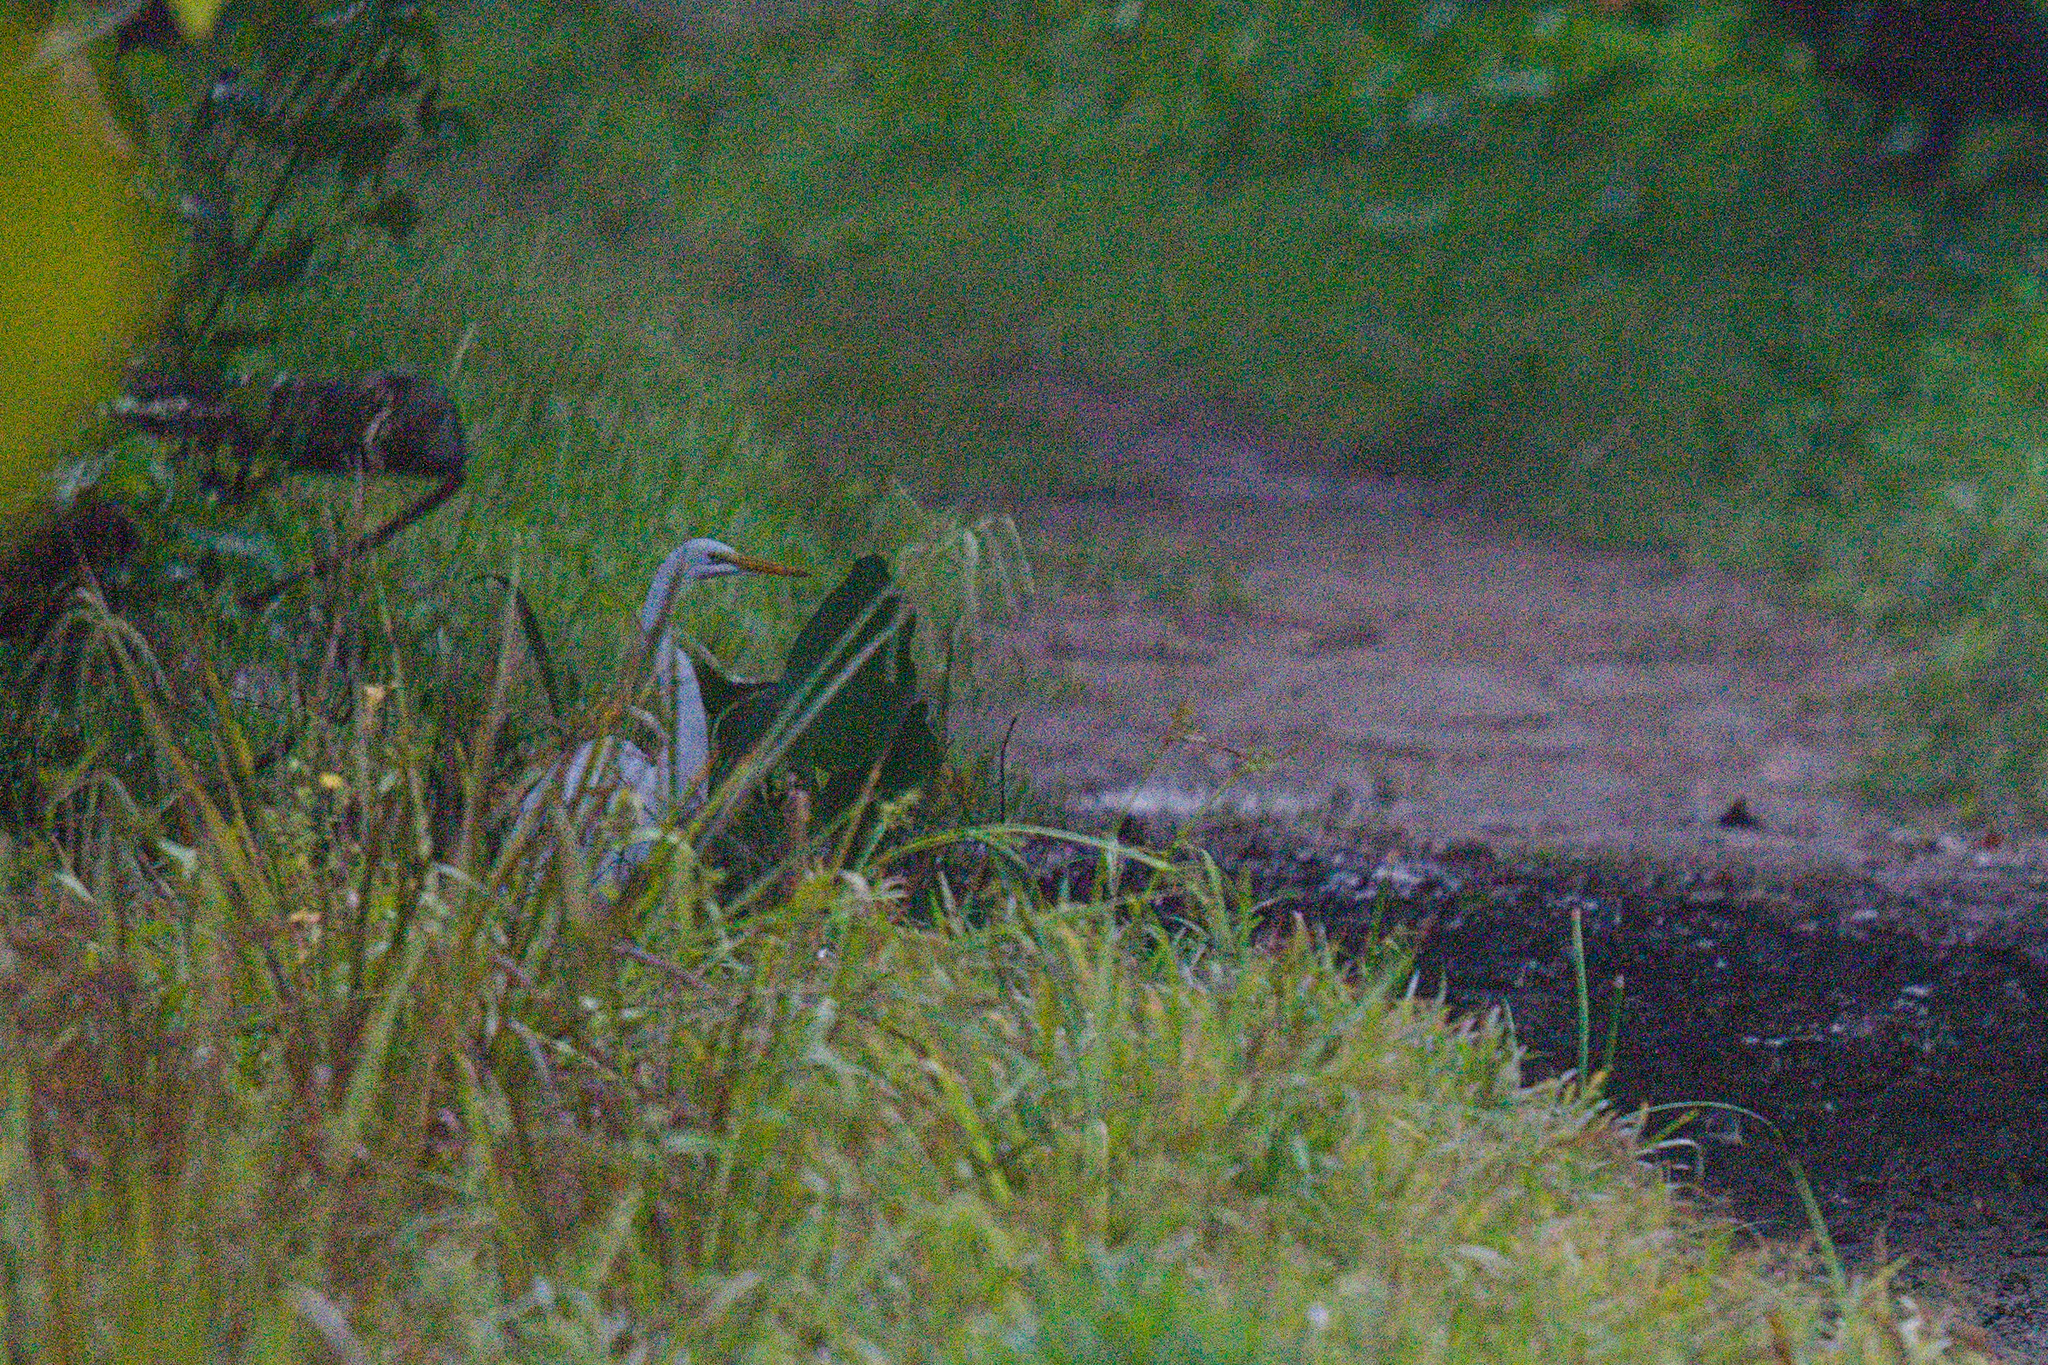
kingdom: Animalia
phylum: Chordata
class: Aves
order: Pelecaniformes
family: Ardeidae
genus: Ardea
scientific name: Ardea alba
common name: Great egret
